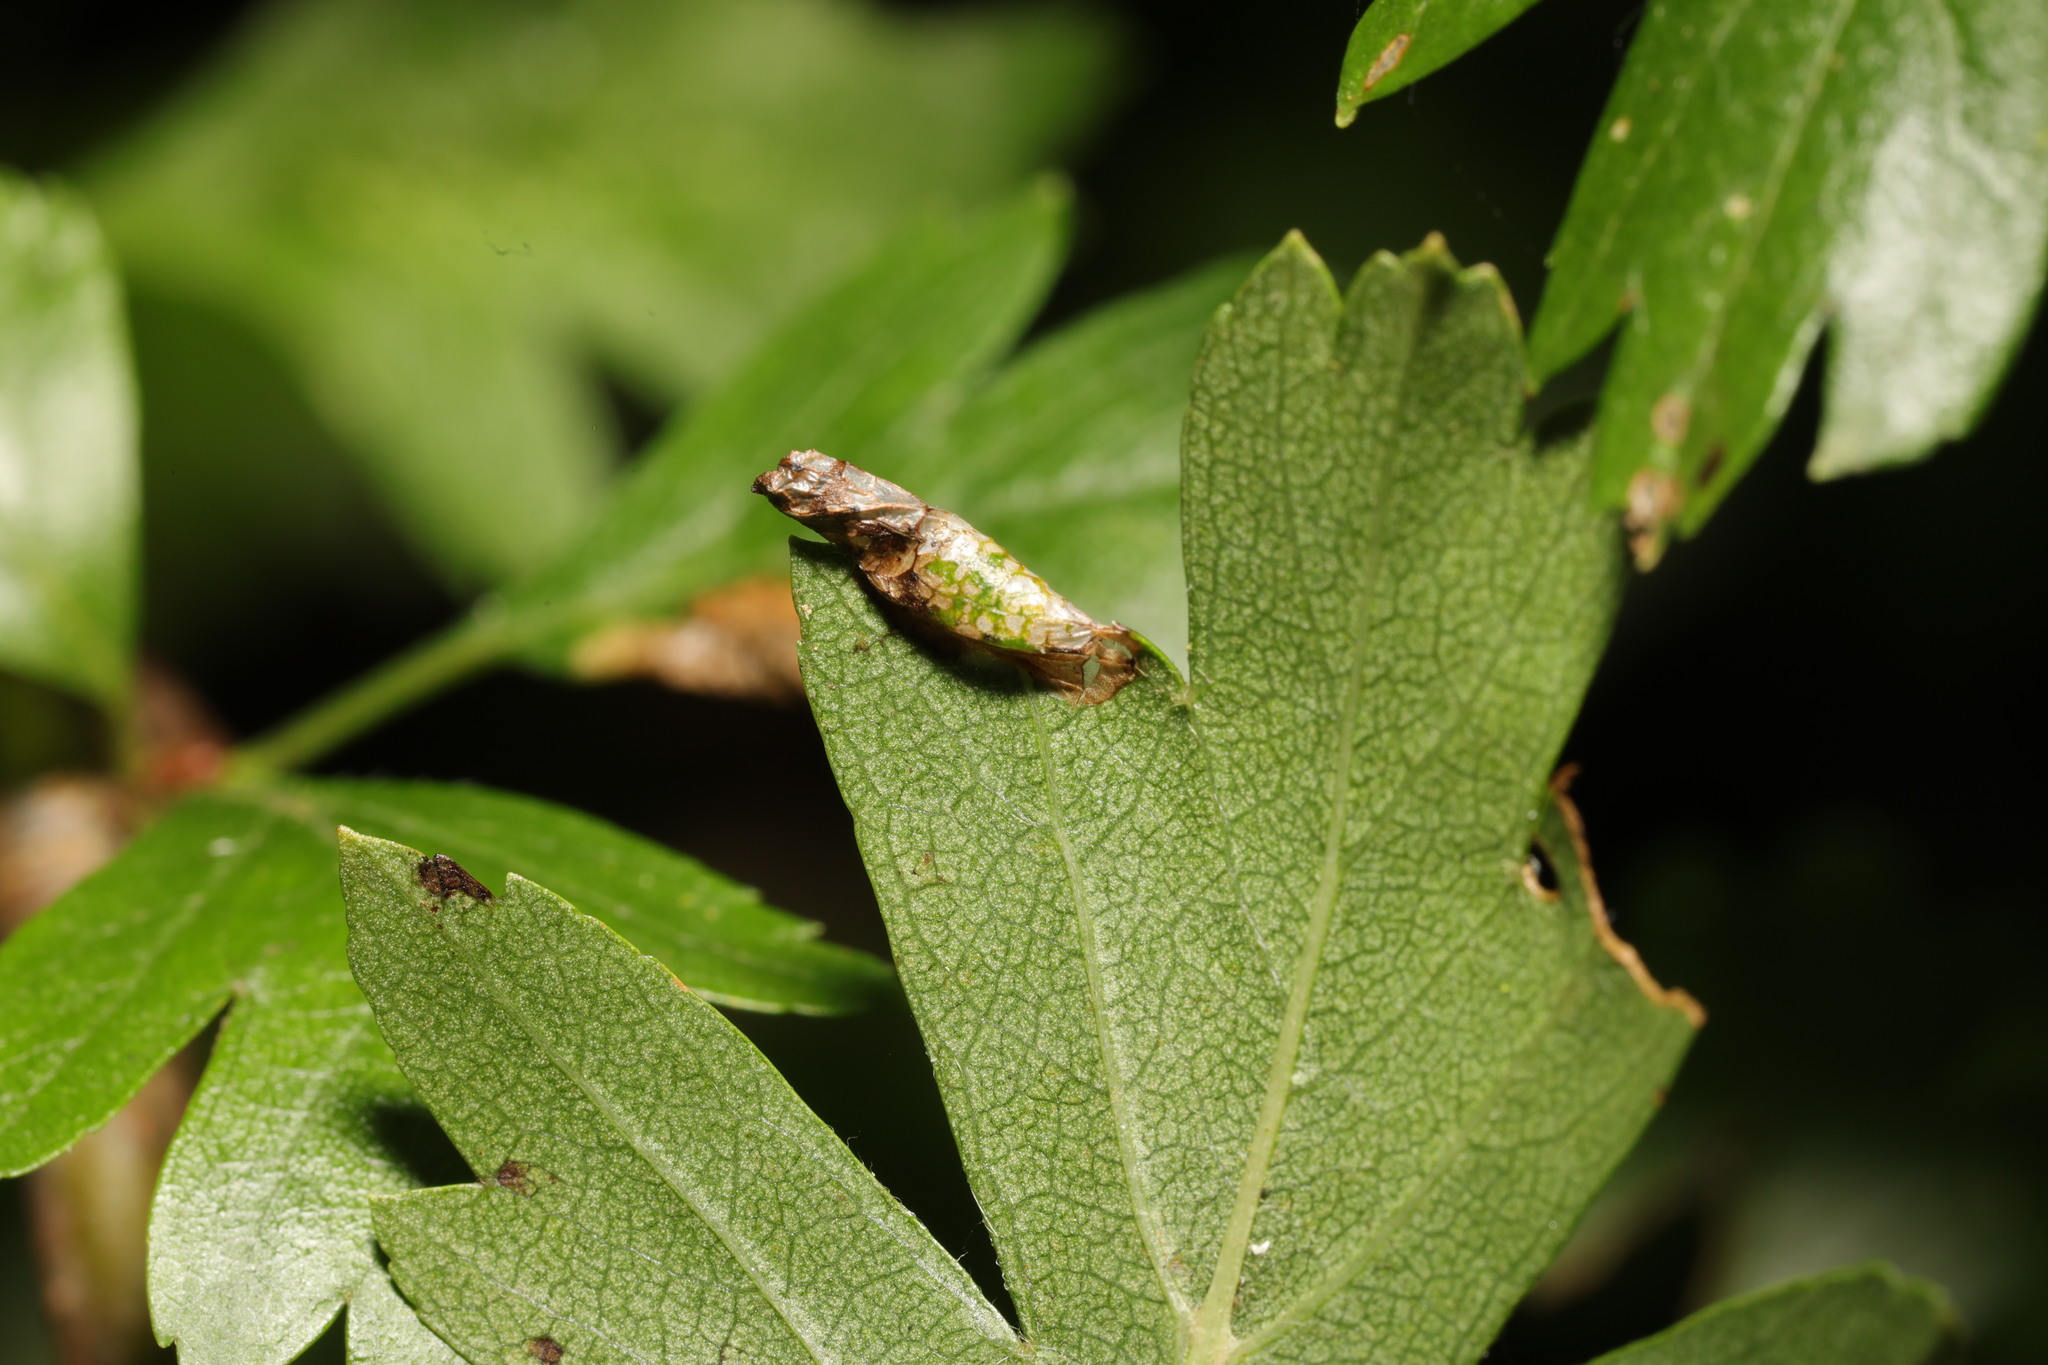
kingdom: Animalia
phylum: Arthropoda
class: Insecta
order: Lepidoptera
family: Gracillariidae
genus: Parornix
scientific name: Parornix anglicella
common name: Hawthorn slender
